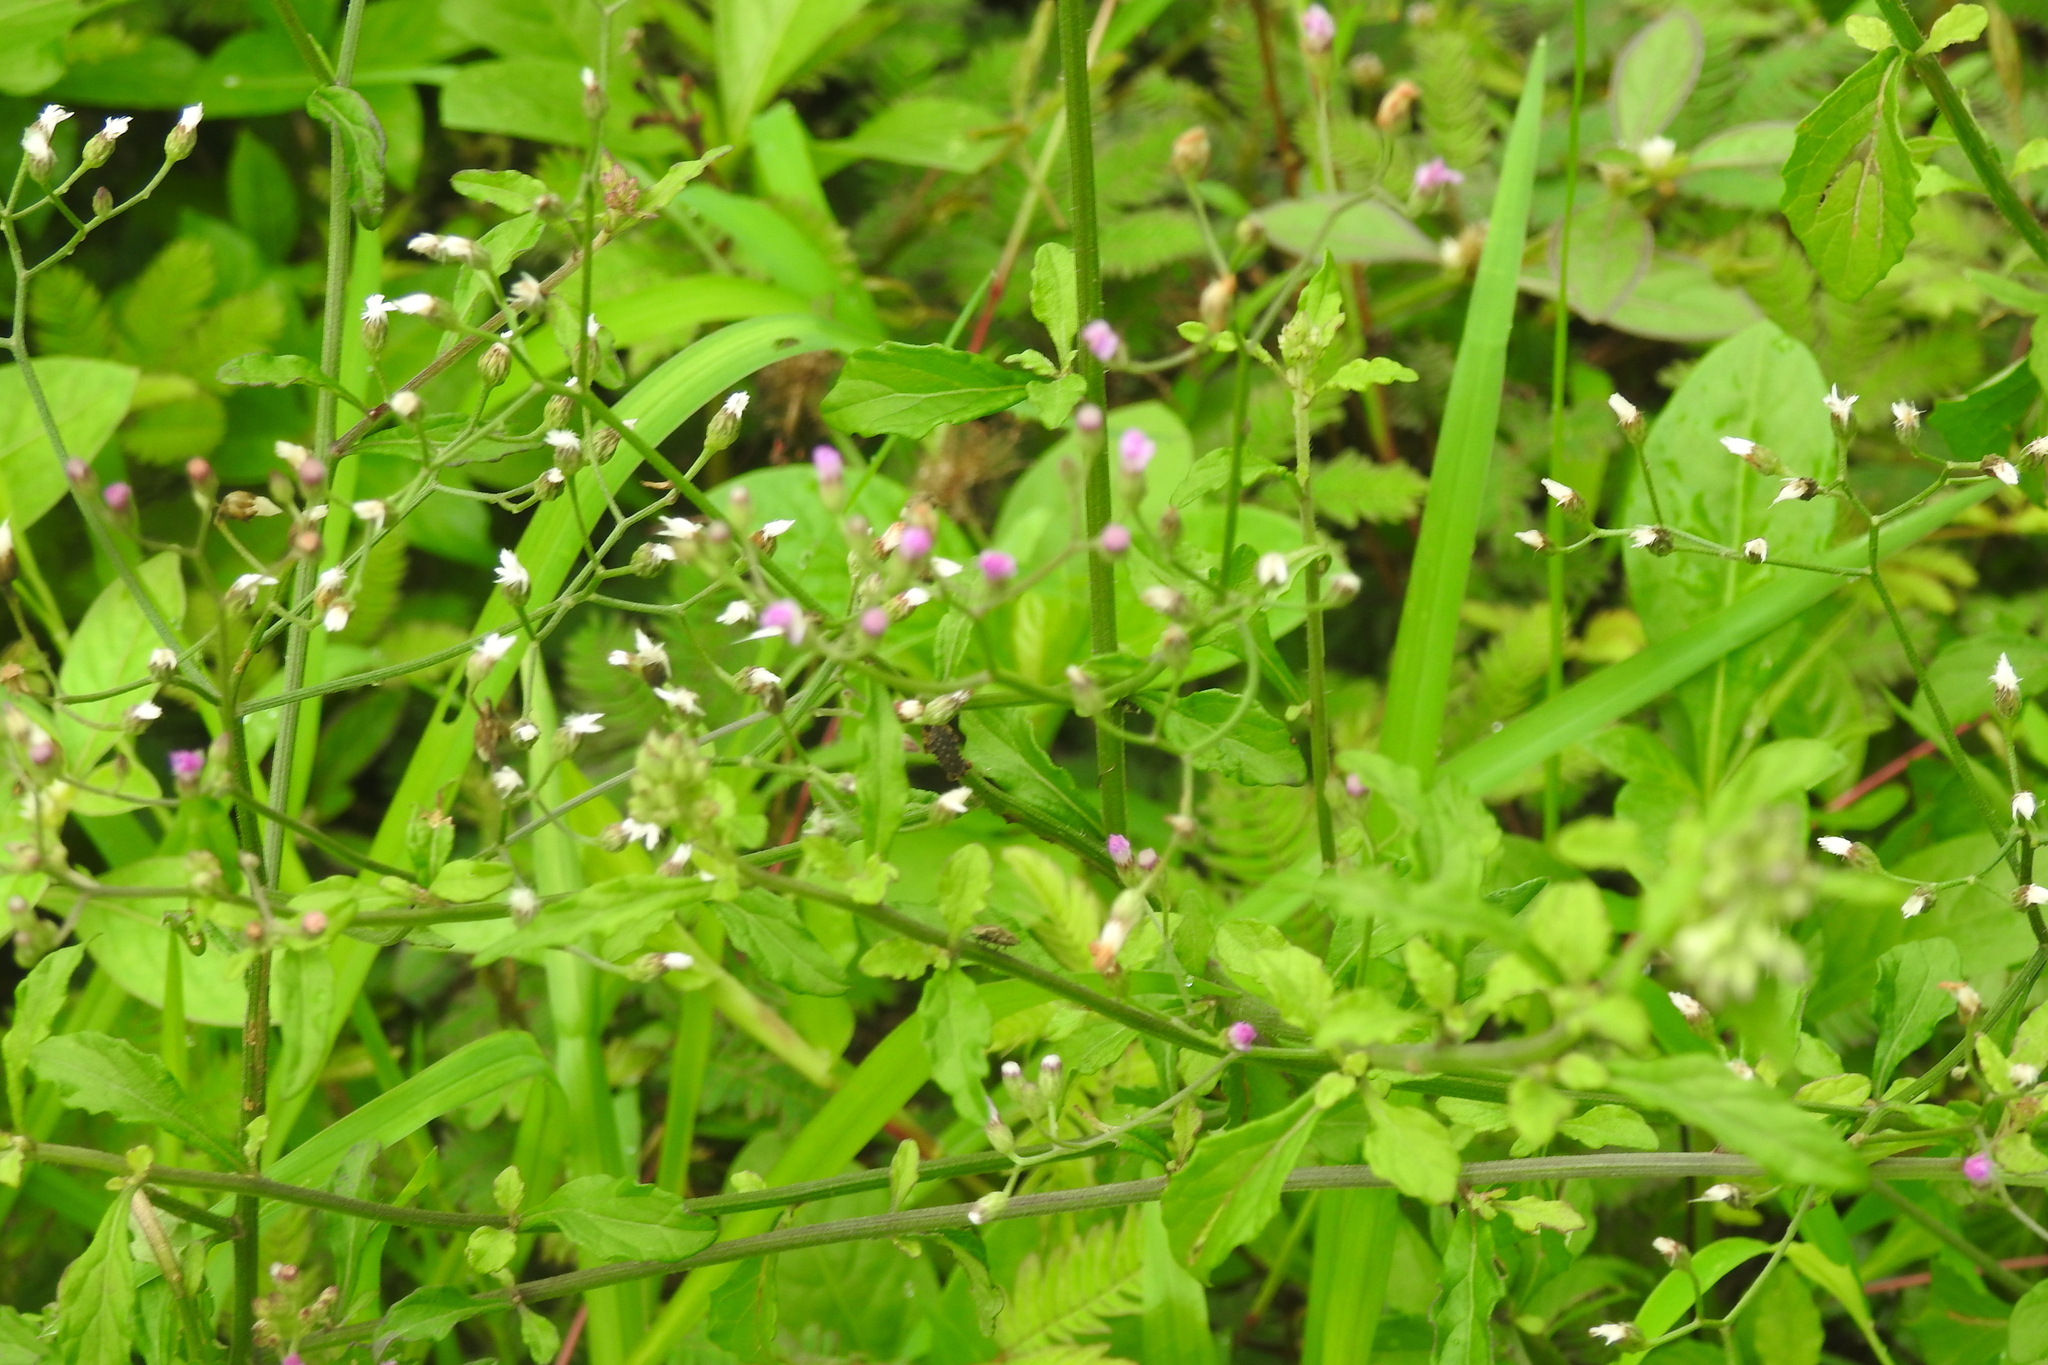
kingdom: Plantae
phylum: Tracheophyta
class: Magnoliopsida
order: Asterales
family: Asteraceae
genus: Cyanthillium
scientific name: Cyanthillium cinereum
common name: Little ironweed
